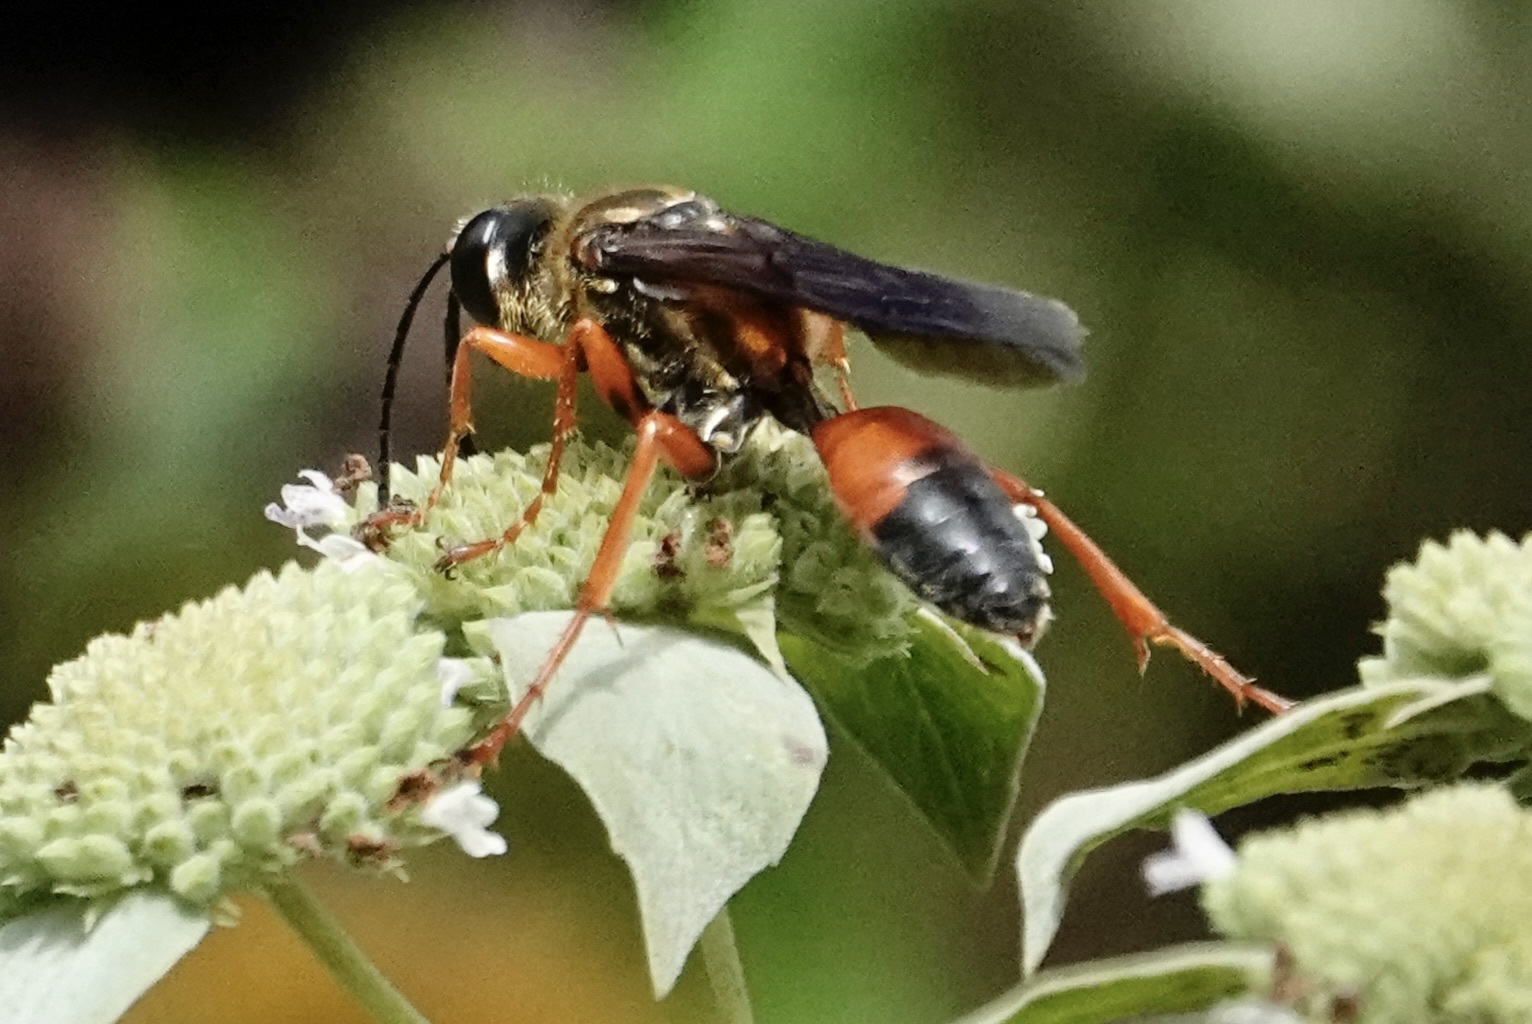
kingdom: Animalia
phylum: Arthropoda
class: Insecta
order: Hymenoptera
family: Sphecidae
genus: Sphex
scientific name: Sphex ichneumoneus
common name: Great golden digger wasp
